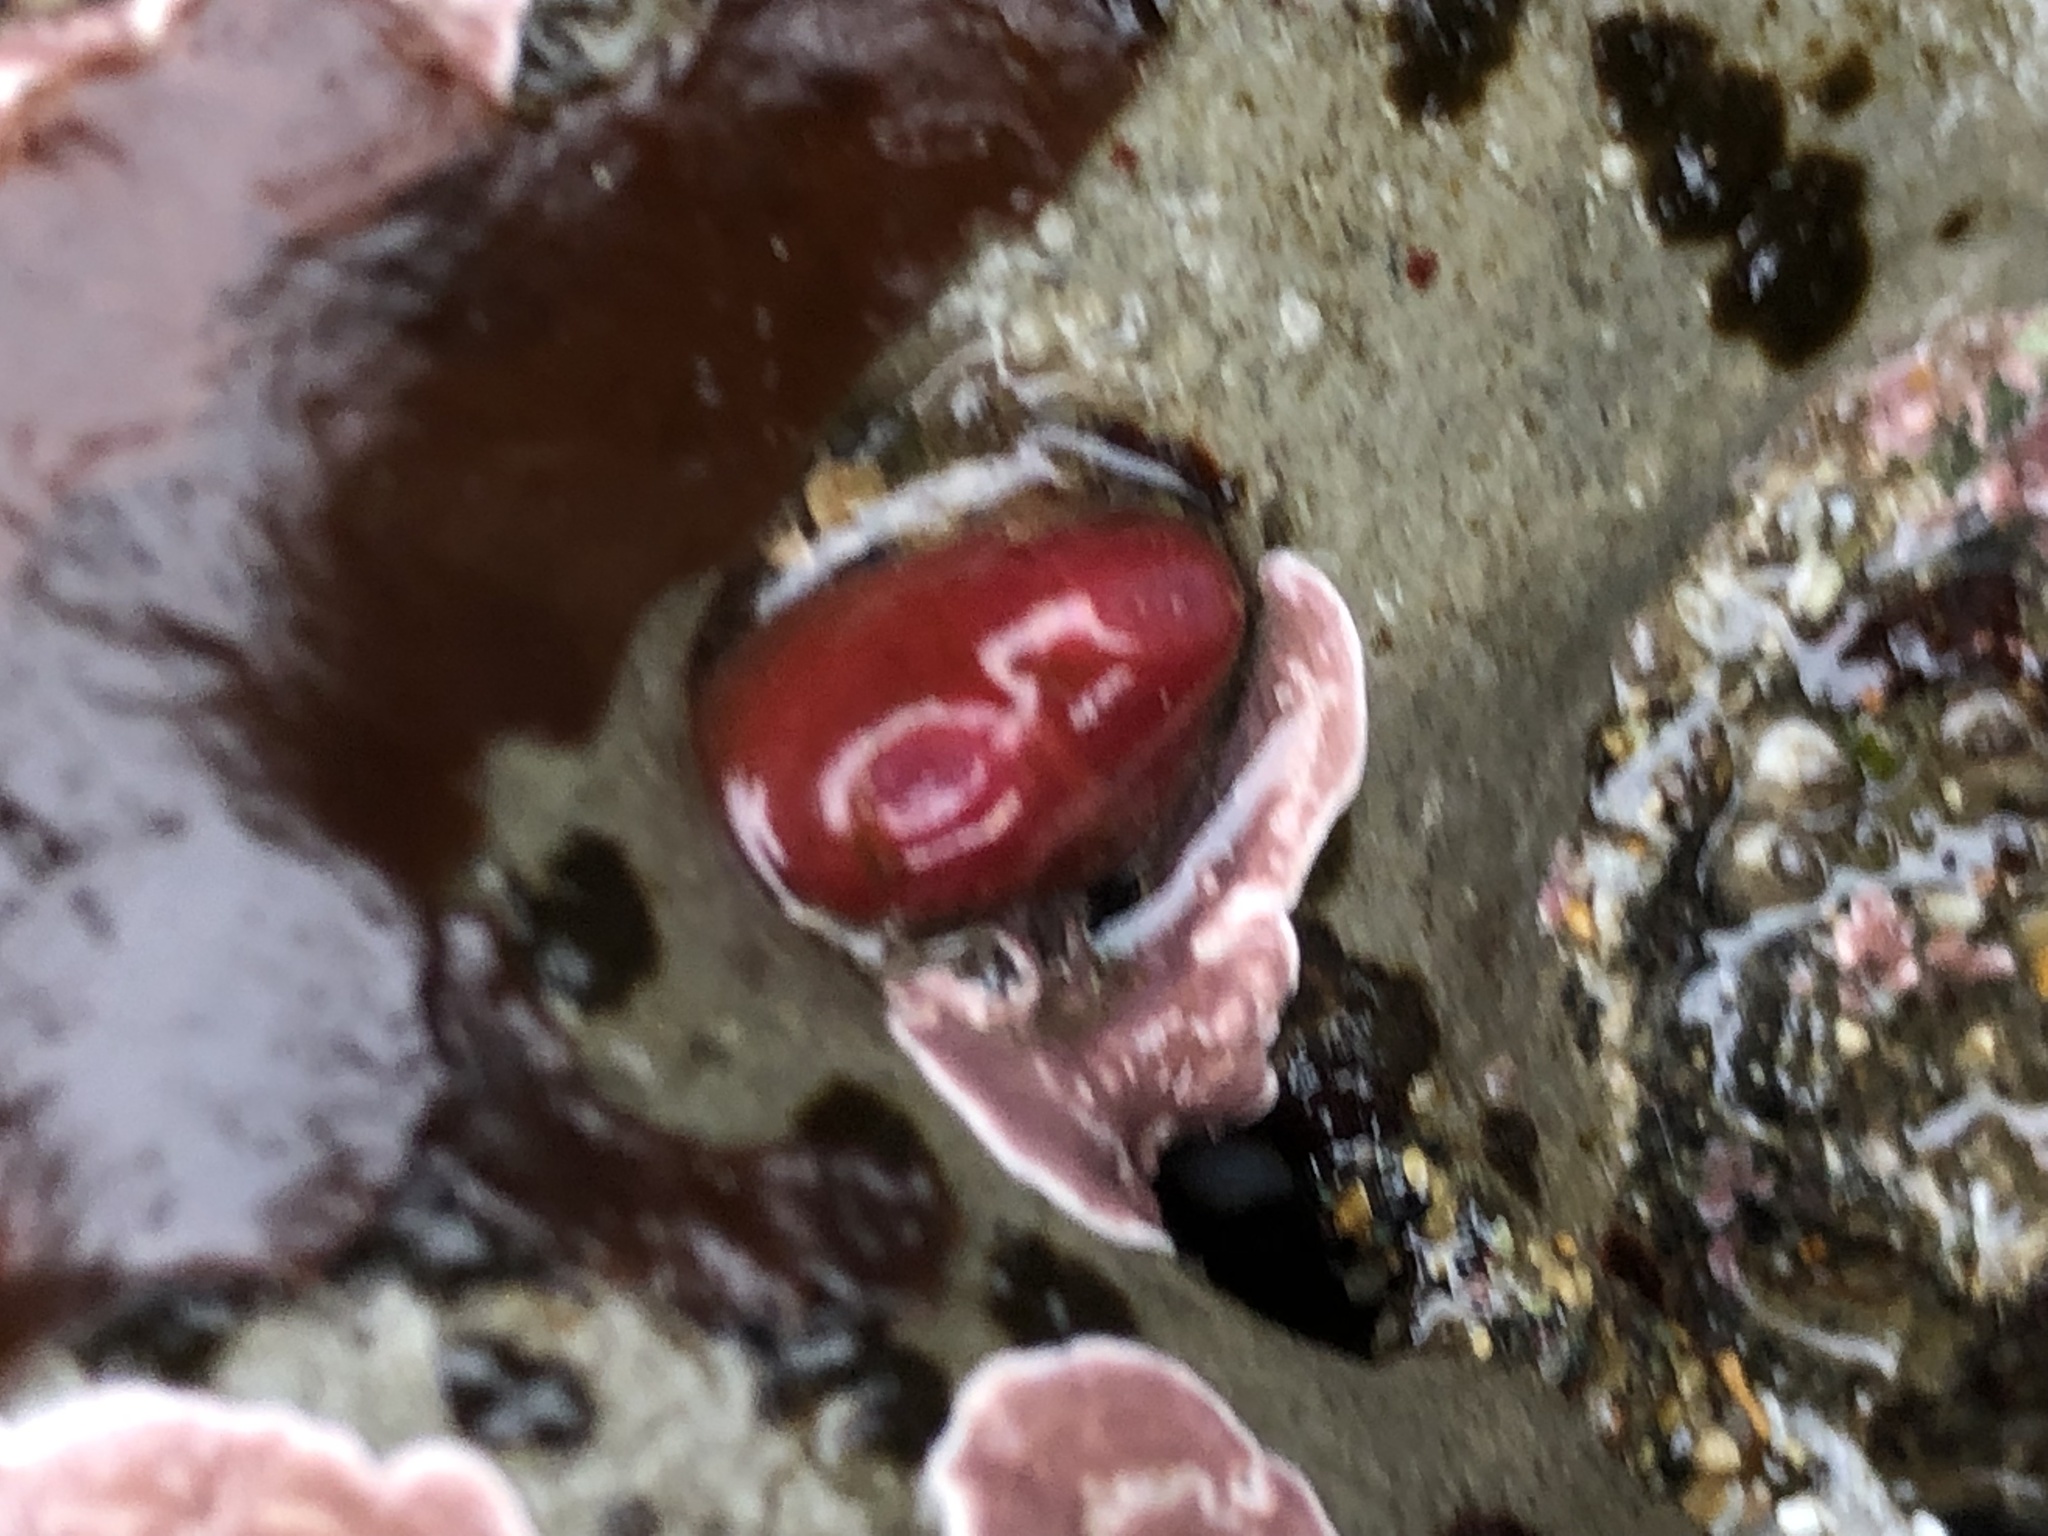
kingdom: Animalia
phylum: Mollusca
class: Bivalvia
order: Adapedonta
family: Hiatellidae
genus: Hiatella
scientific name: Hiatella arctica
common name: Arctic hiatella
